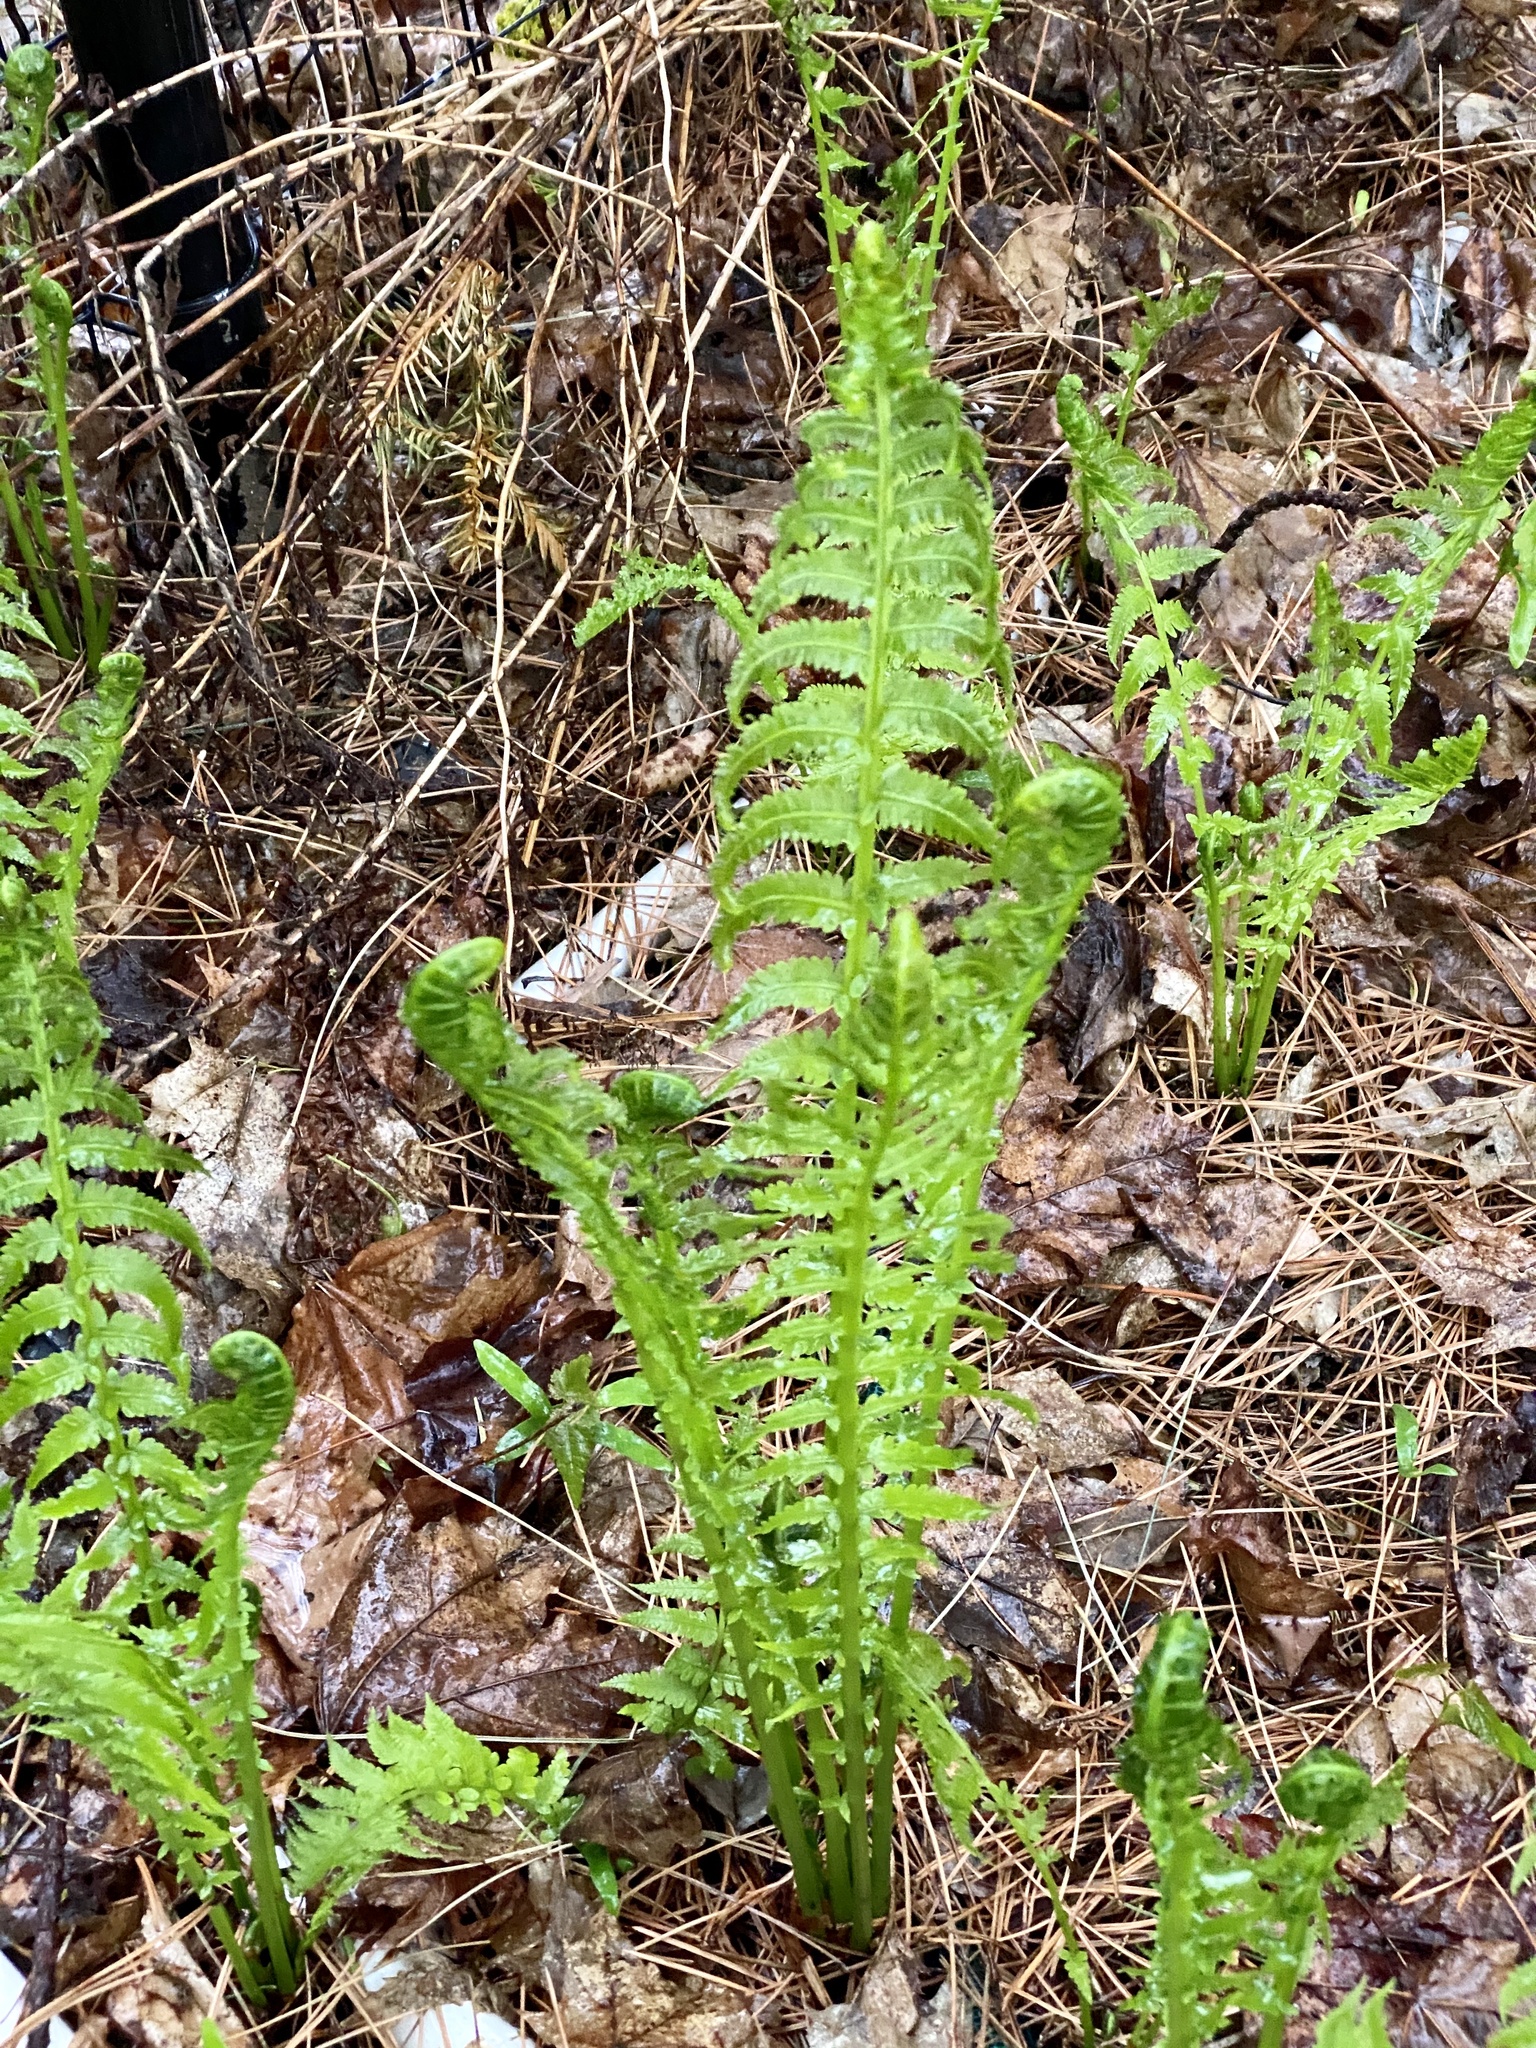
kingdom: Plantae
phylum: Tracheophyta
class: Polypodiopsida
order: Polypodiales
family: Onocleaceae
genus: Matteuccia
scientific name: Matteuccia struthiopteris
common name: Ostrich fern
